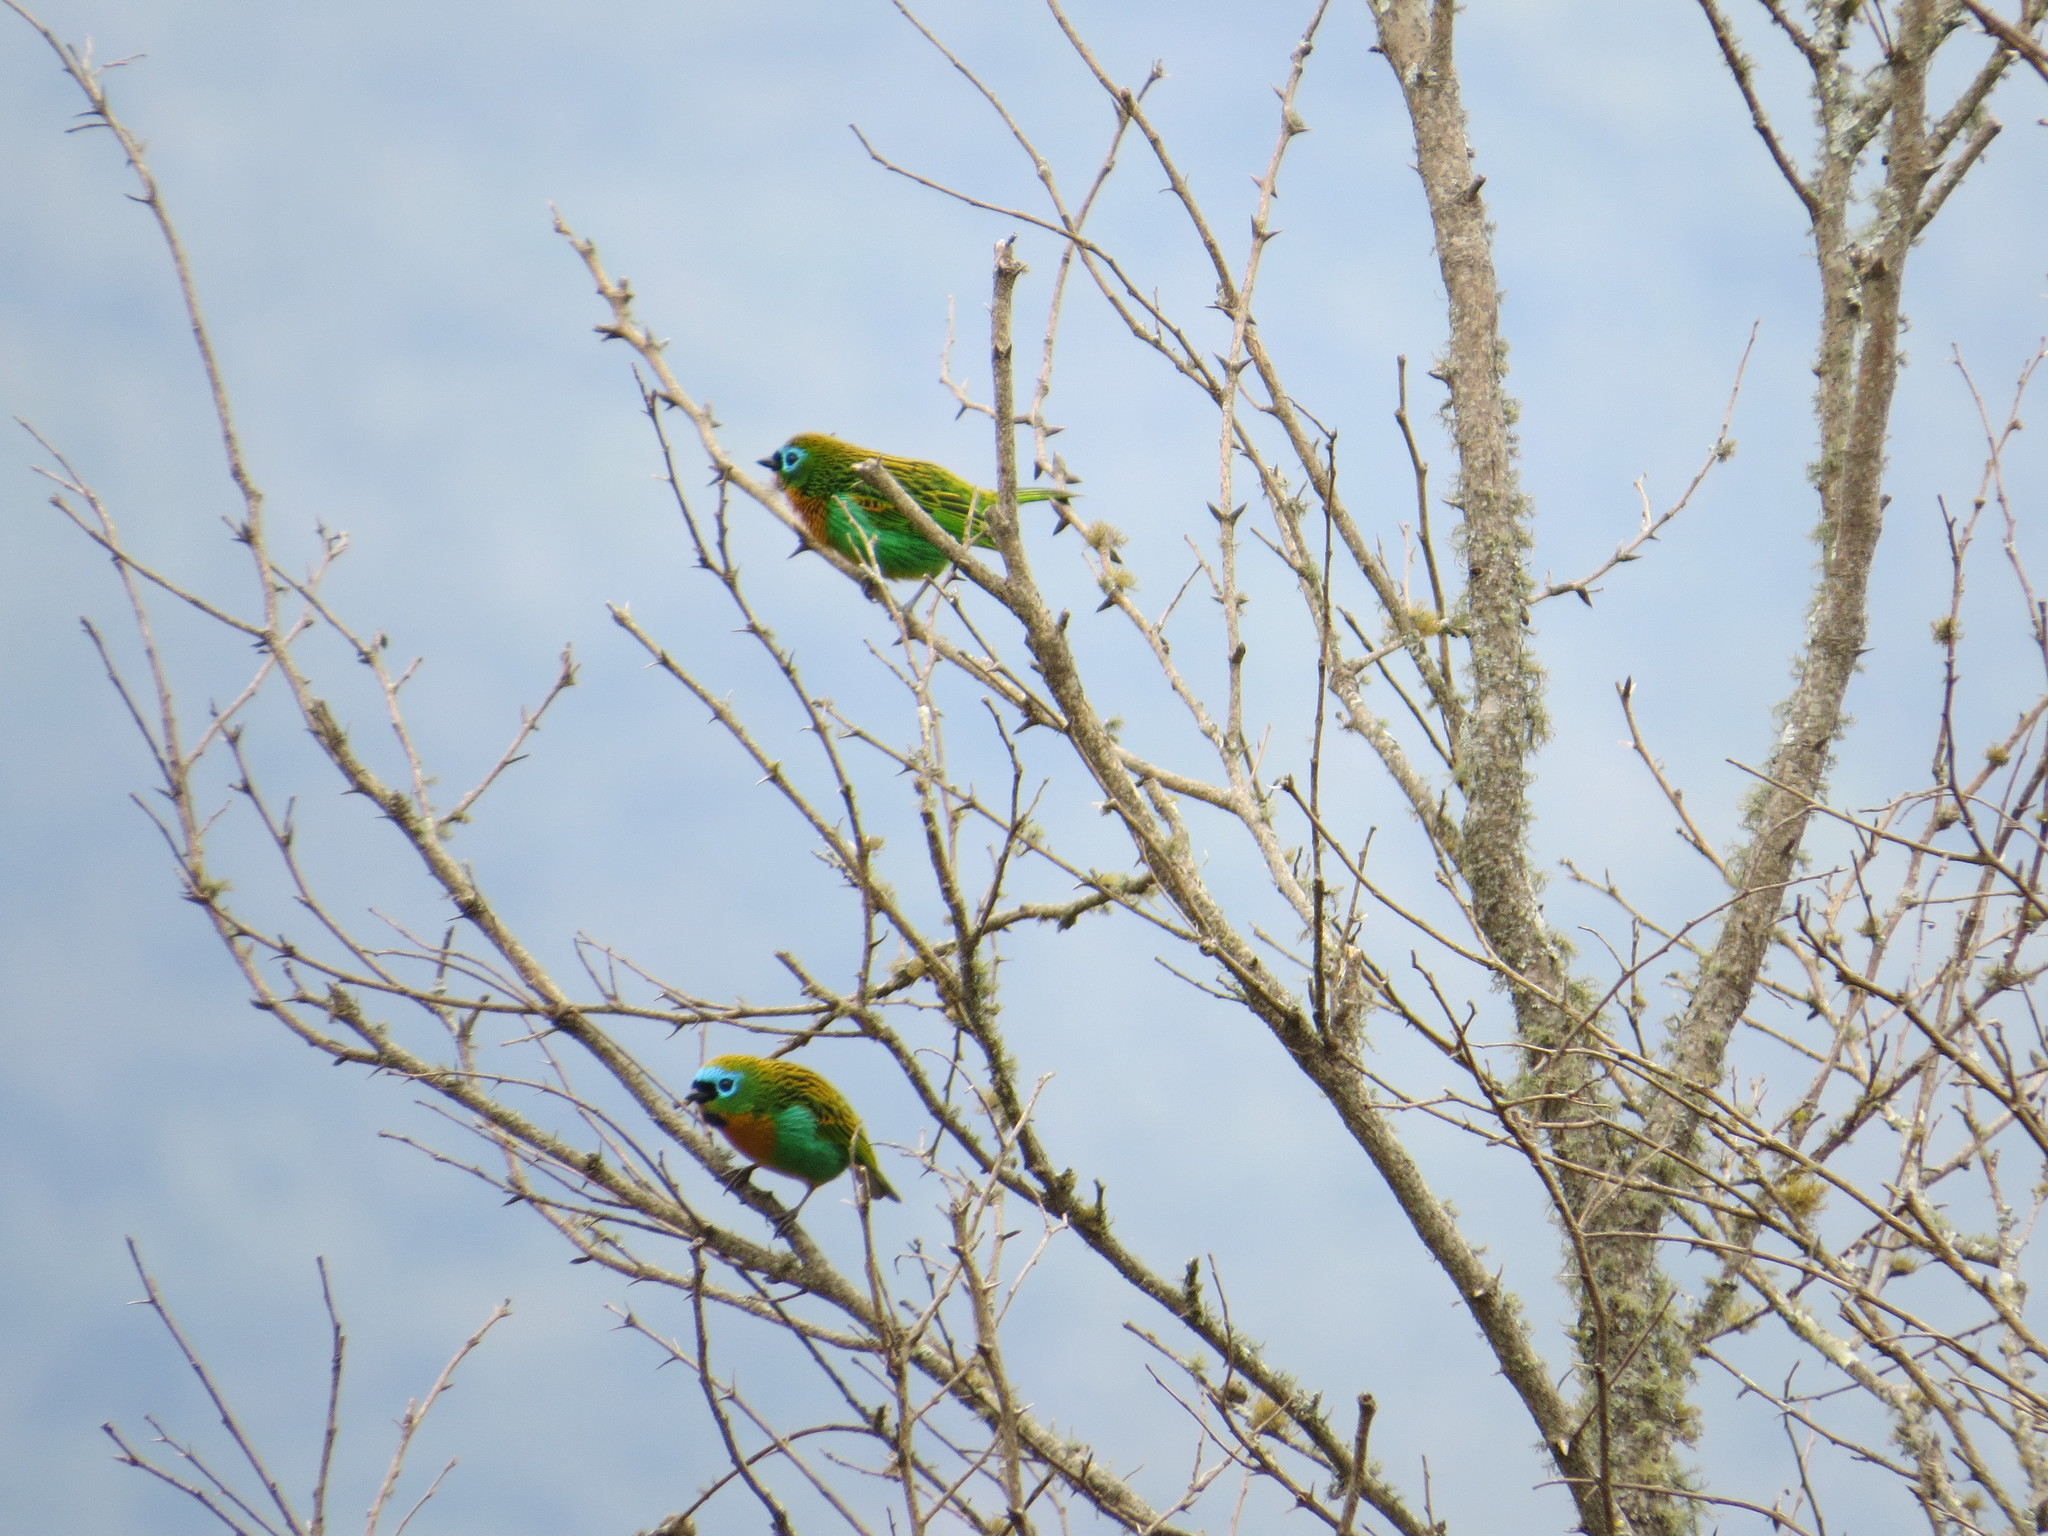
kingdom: Animalia
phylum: Chordata
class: Aves
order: Passeriformes
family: Thraupidae
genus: Tangara
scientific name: Tangara desmaresti
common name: Brassy-breasted tanager
